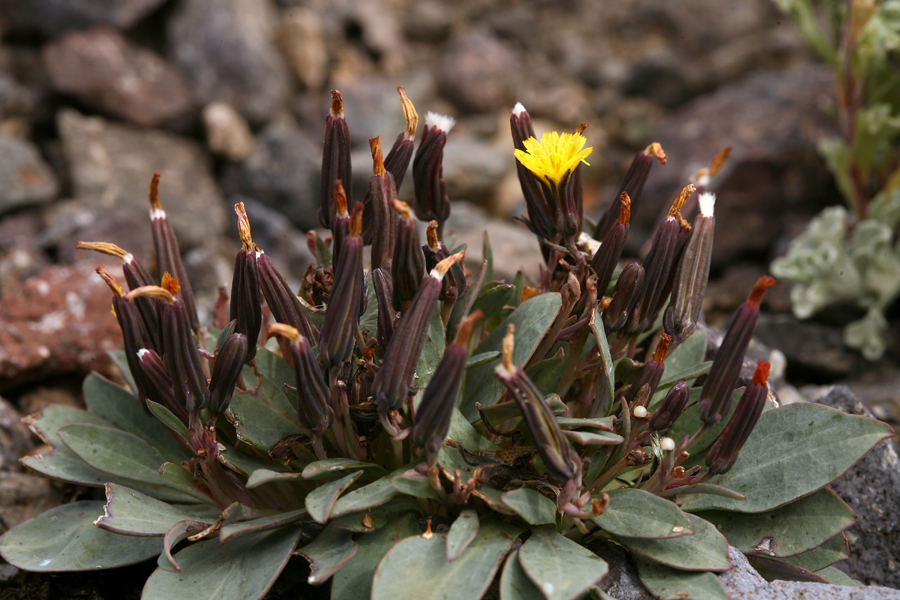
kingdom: Plantae
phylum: Tracheophyta
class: Magnoliopsida
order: Asterales
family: Asteraceae
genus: Askellia
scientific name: Askellia pygmaea
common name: Dwarf alpine hawksbeard
